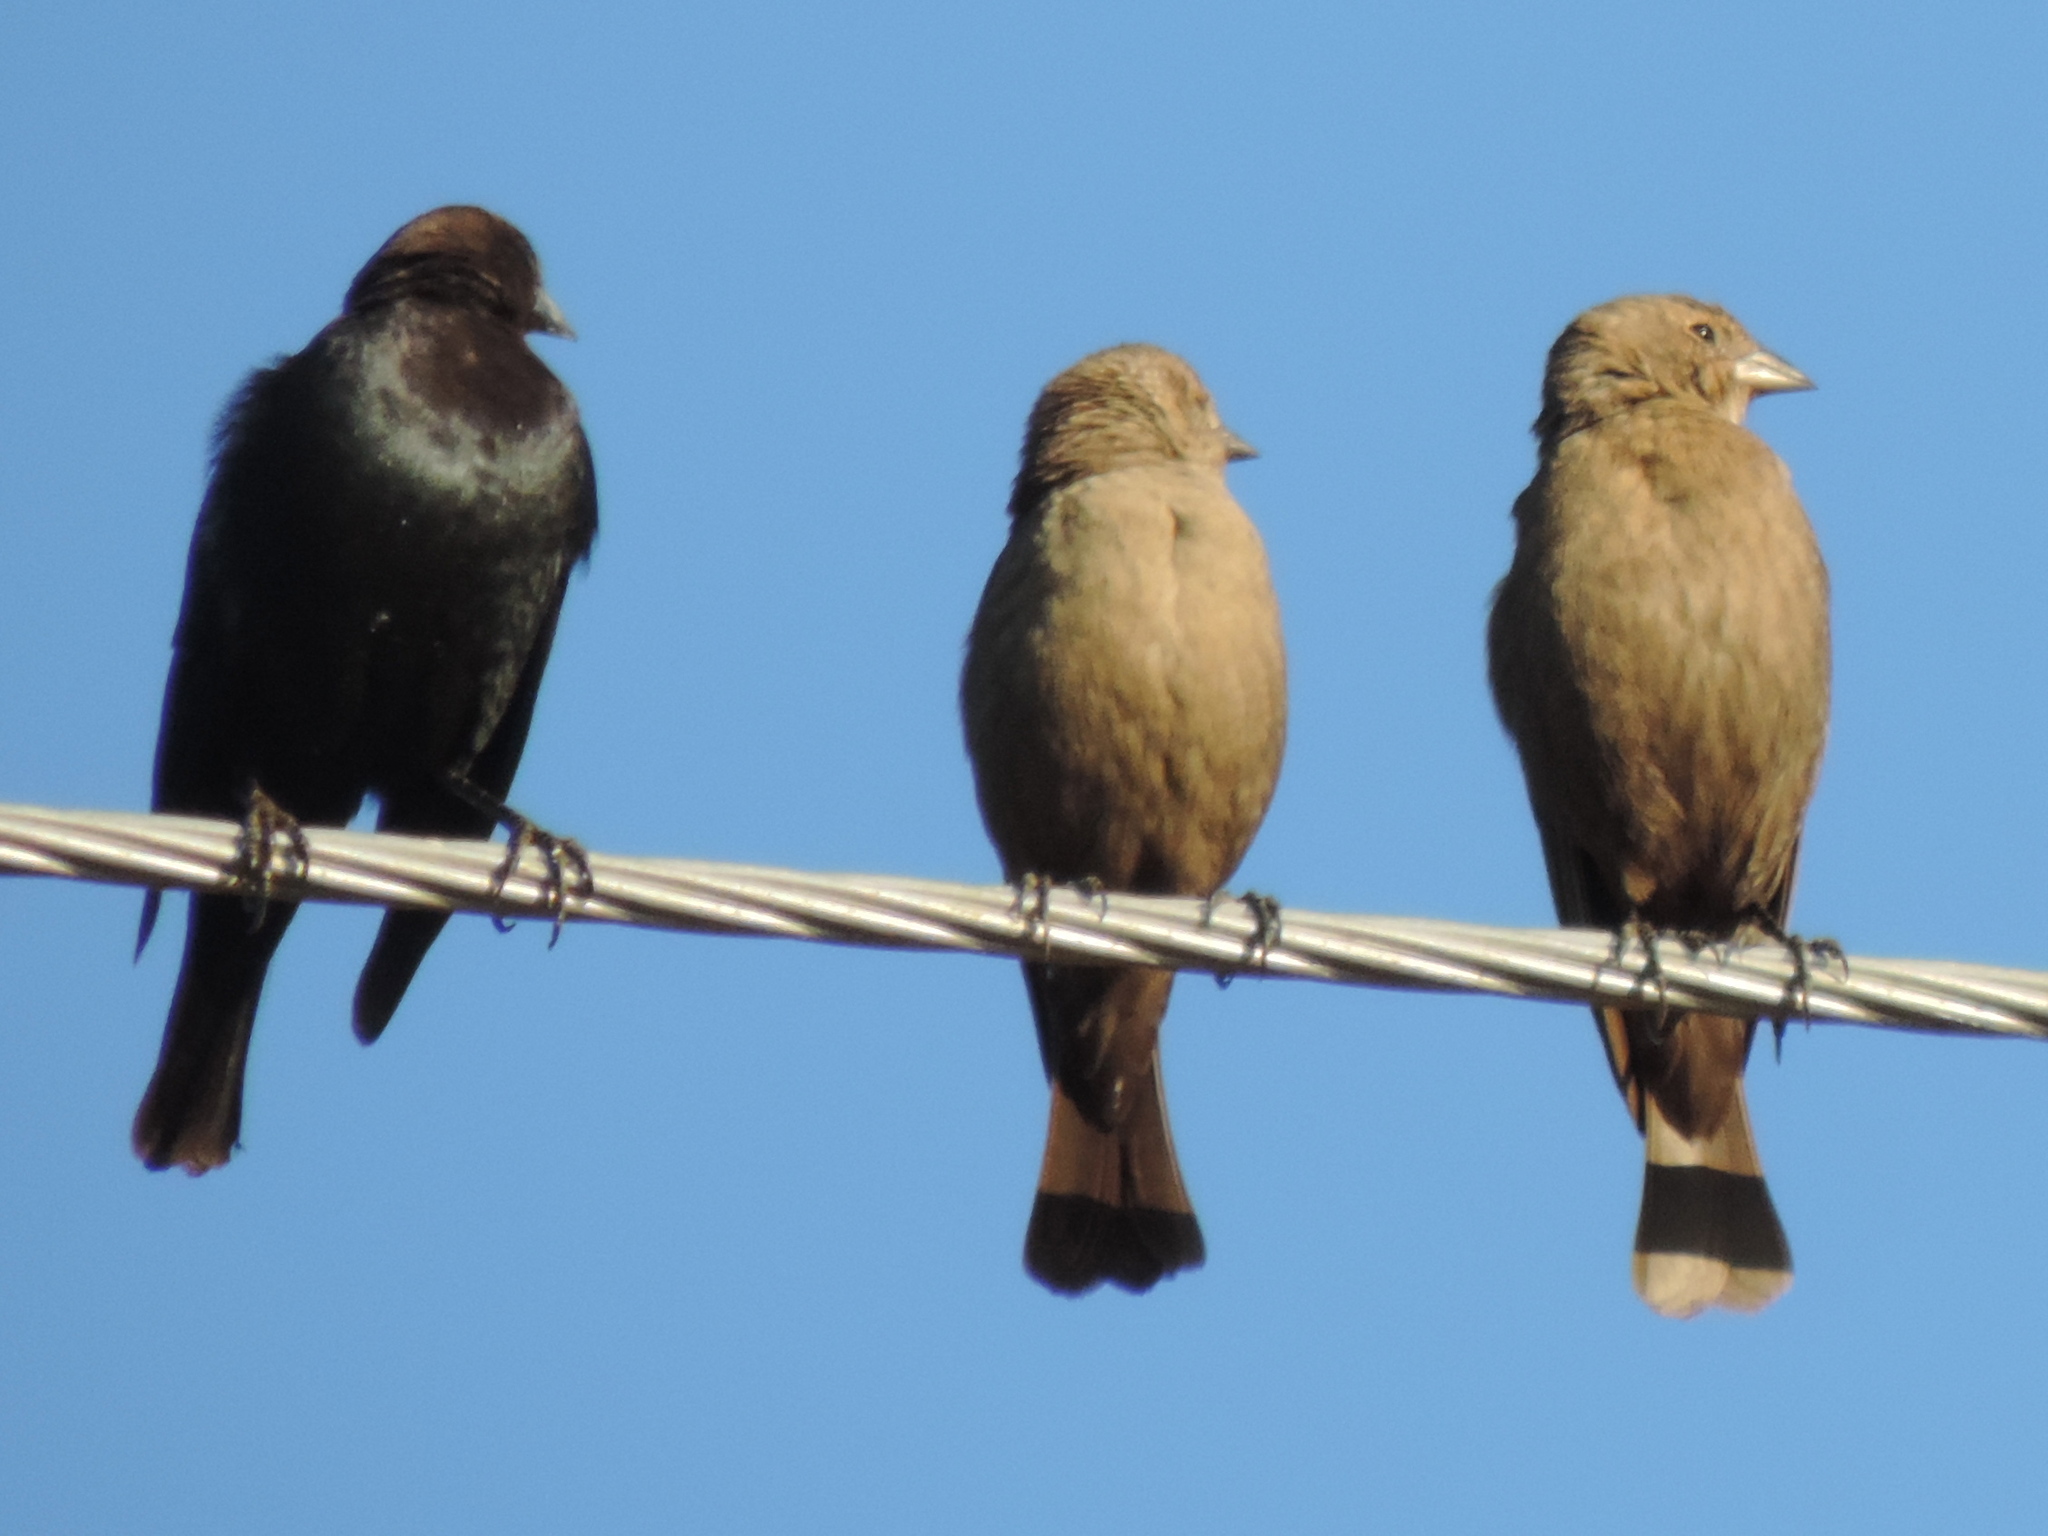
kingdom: Animalia
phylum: Chordata
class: Aves
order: Passeriformes
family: Icteridae
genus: Molothrus
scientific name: Molothrus ater
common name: Brown-headed cowbird
